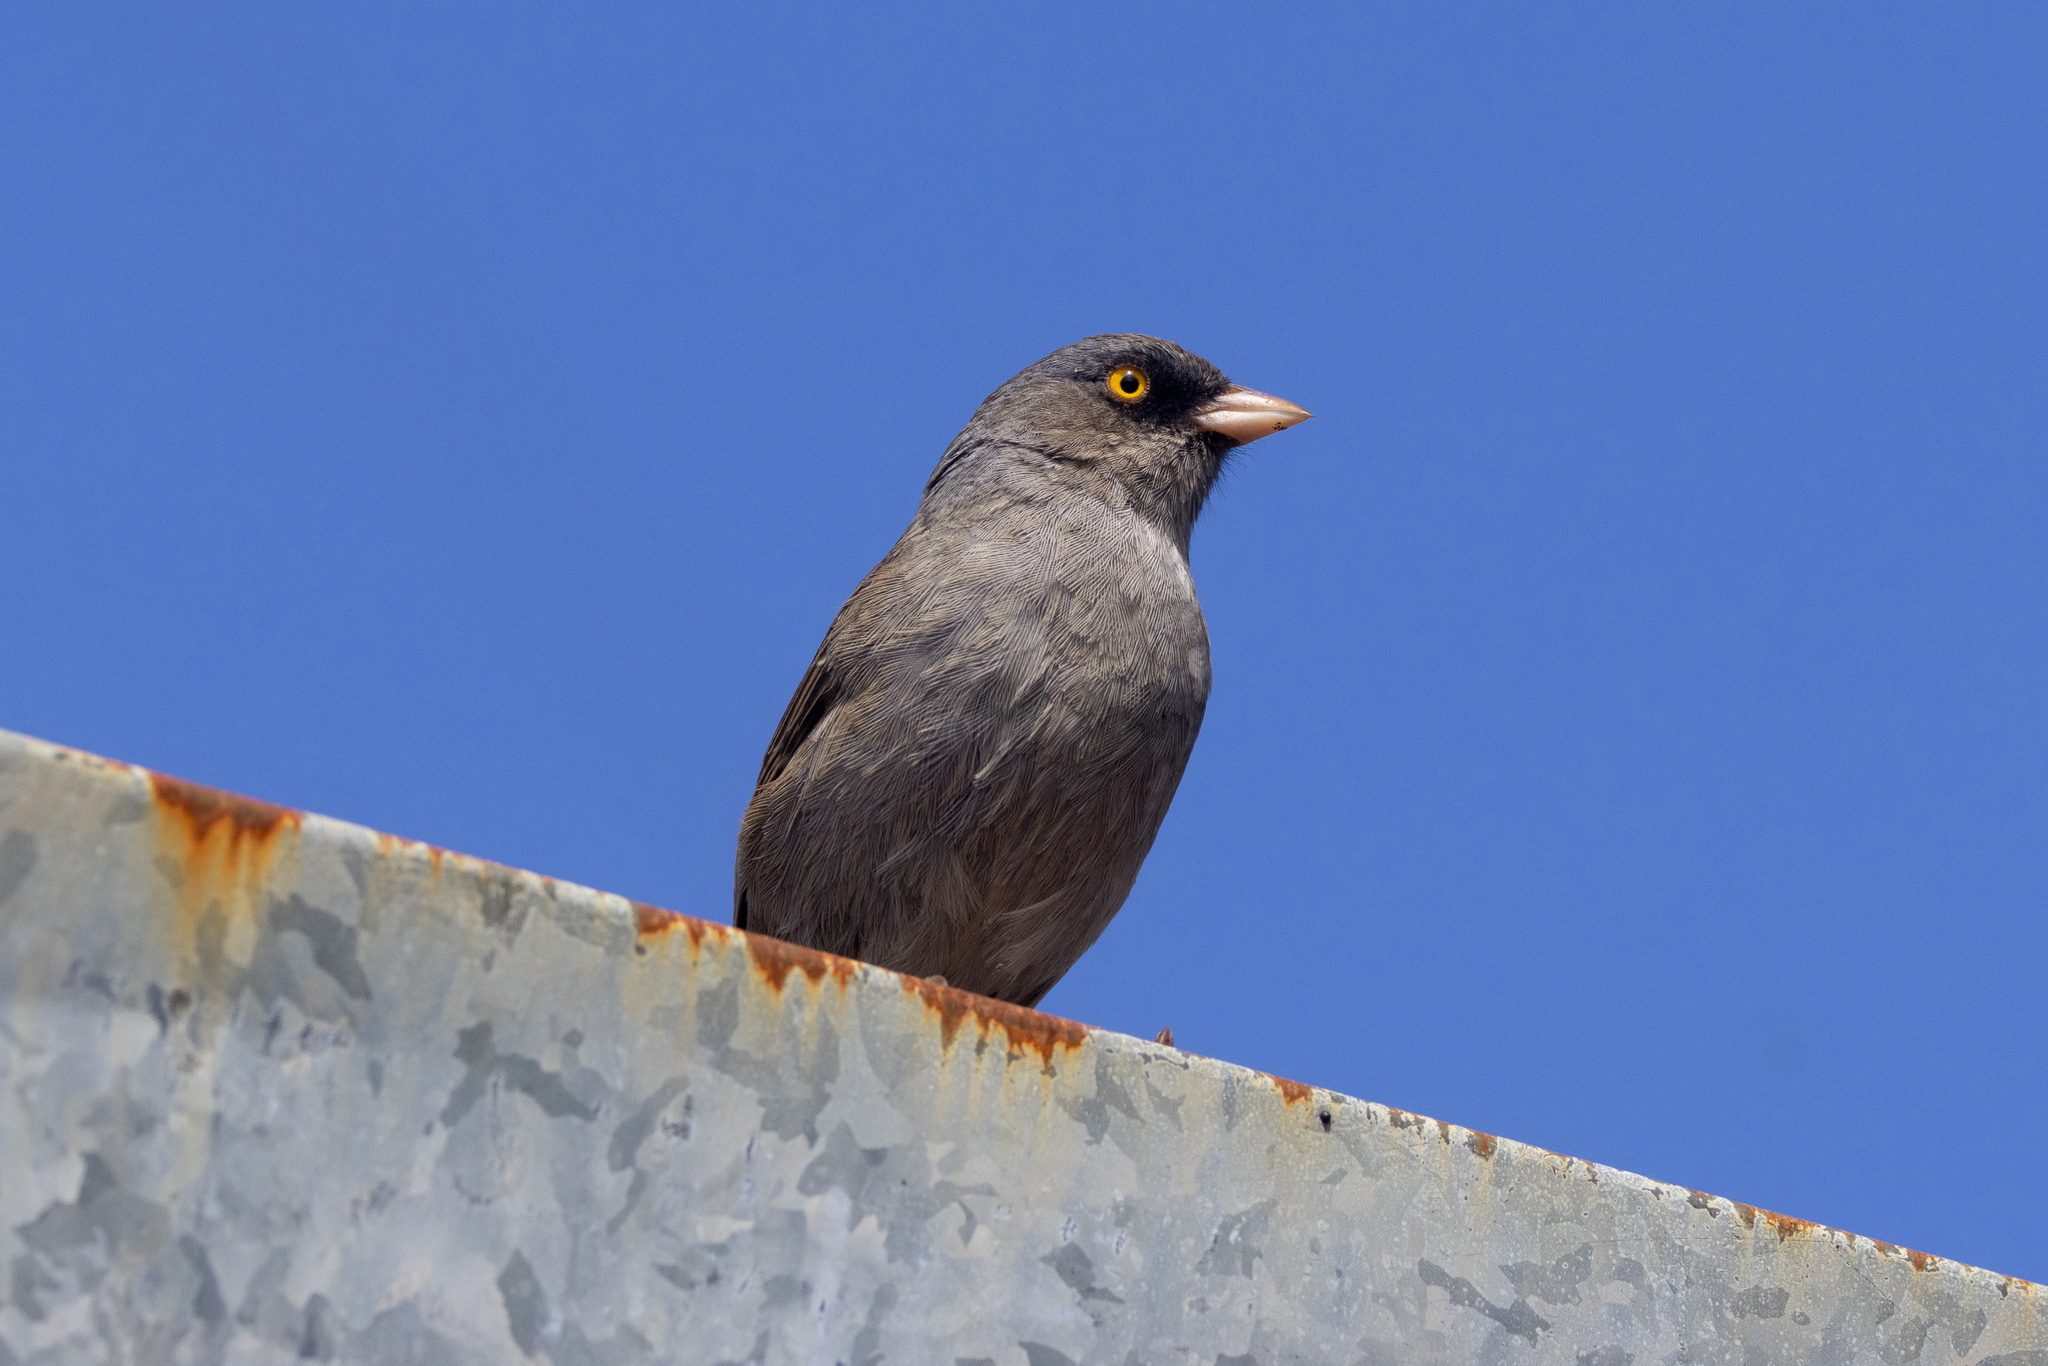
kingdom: Animalia
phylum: Chordata
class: Aves
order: Passeriformes
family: Passerellidae
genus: Junco
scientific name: Junco vulcani
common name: Volcano junco
